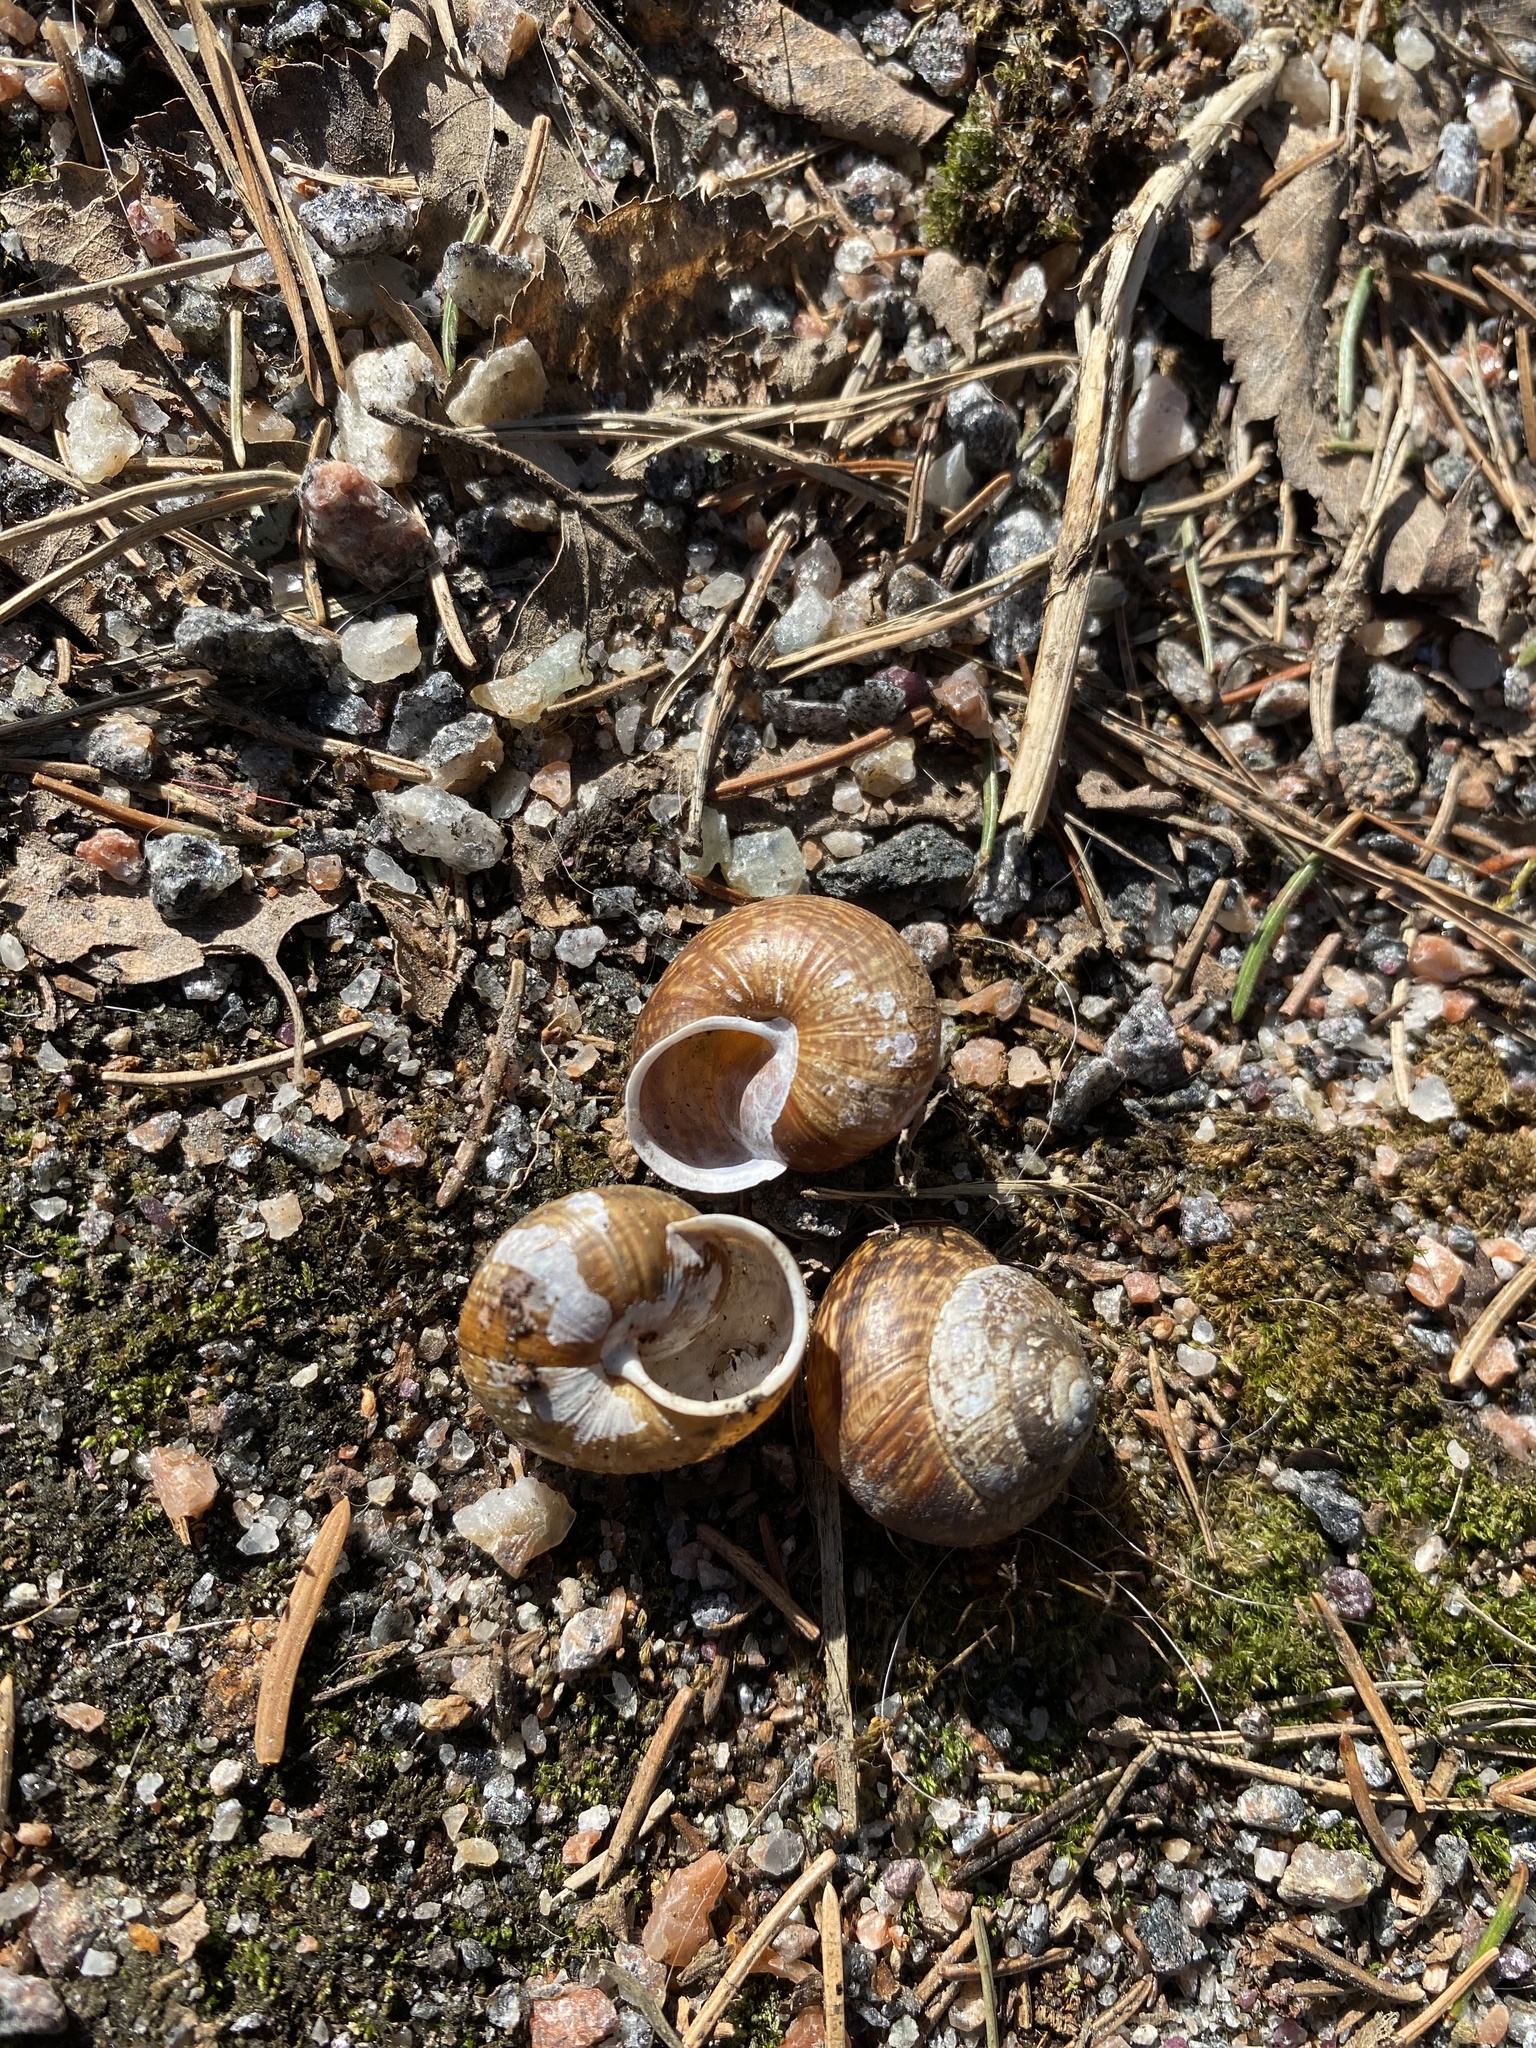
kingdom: Animalia
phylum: Mollusca
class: Gastropoda
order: Stylommatophora
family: Helicidae
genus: Arianta
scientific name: Arianta arbustorum
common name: Copse snail
